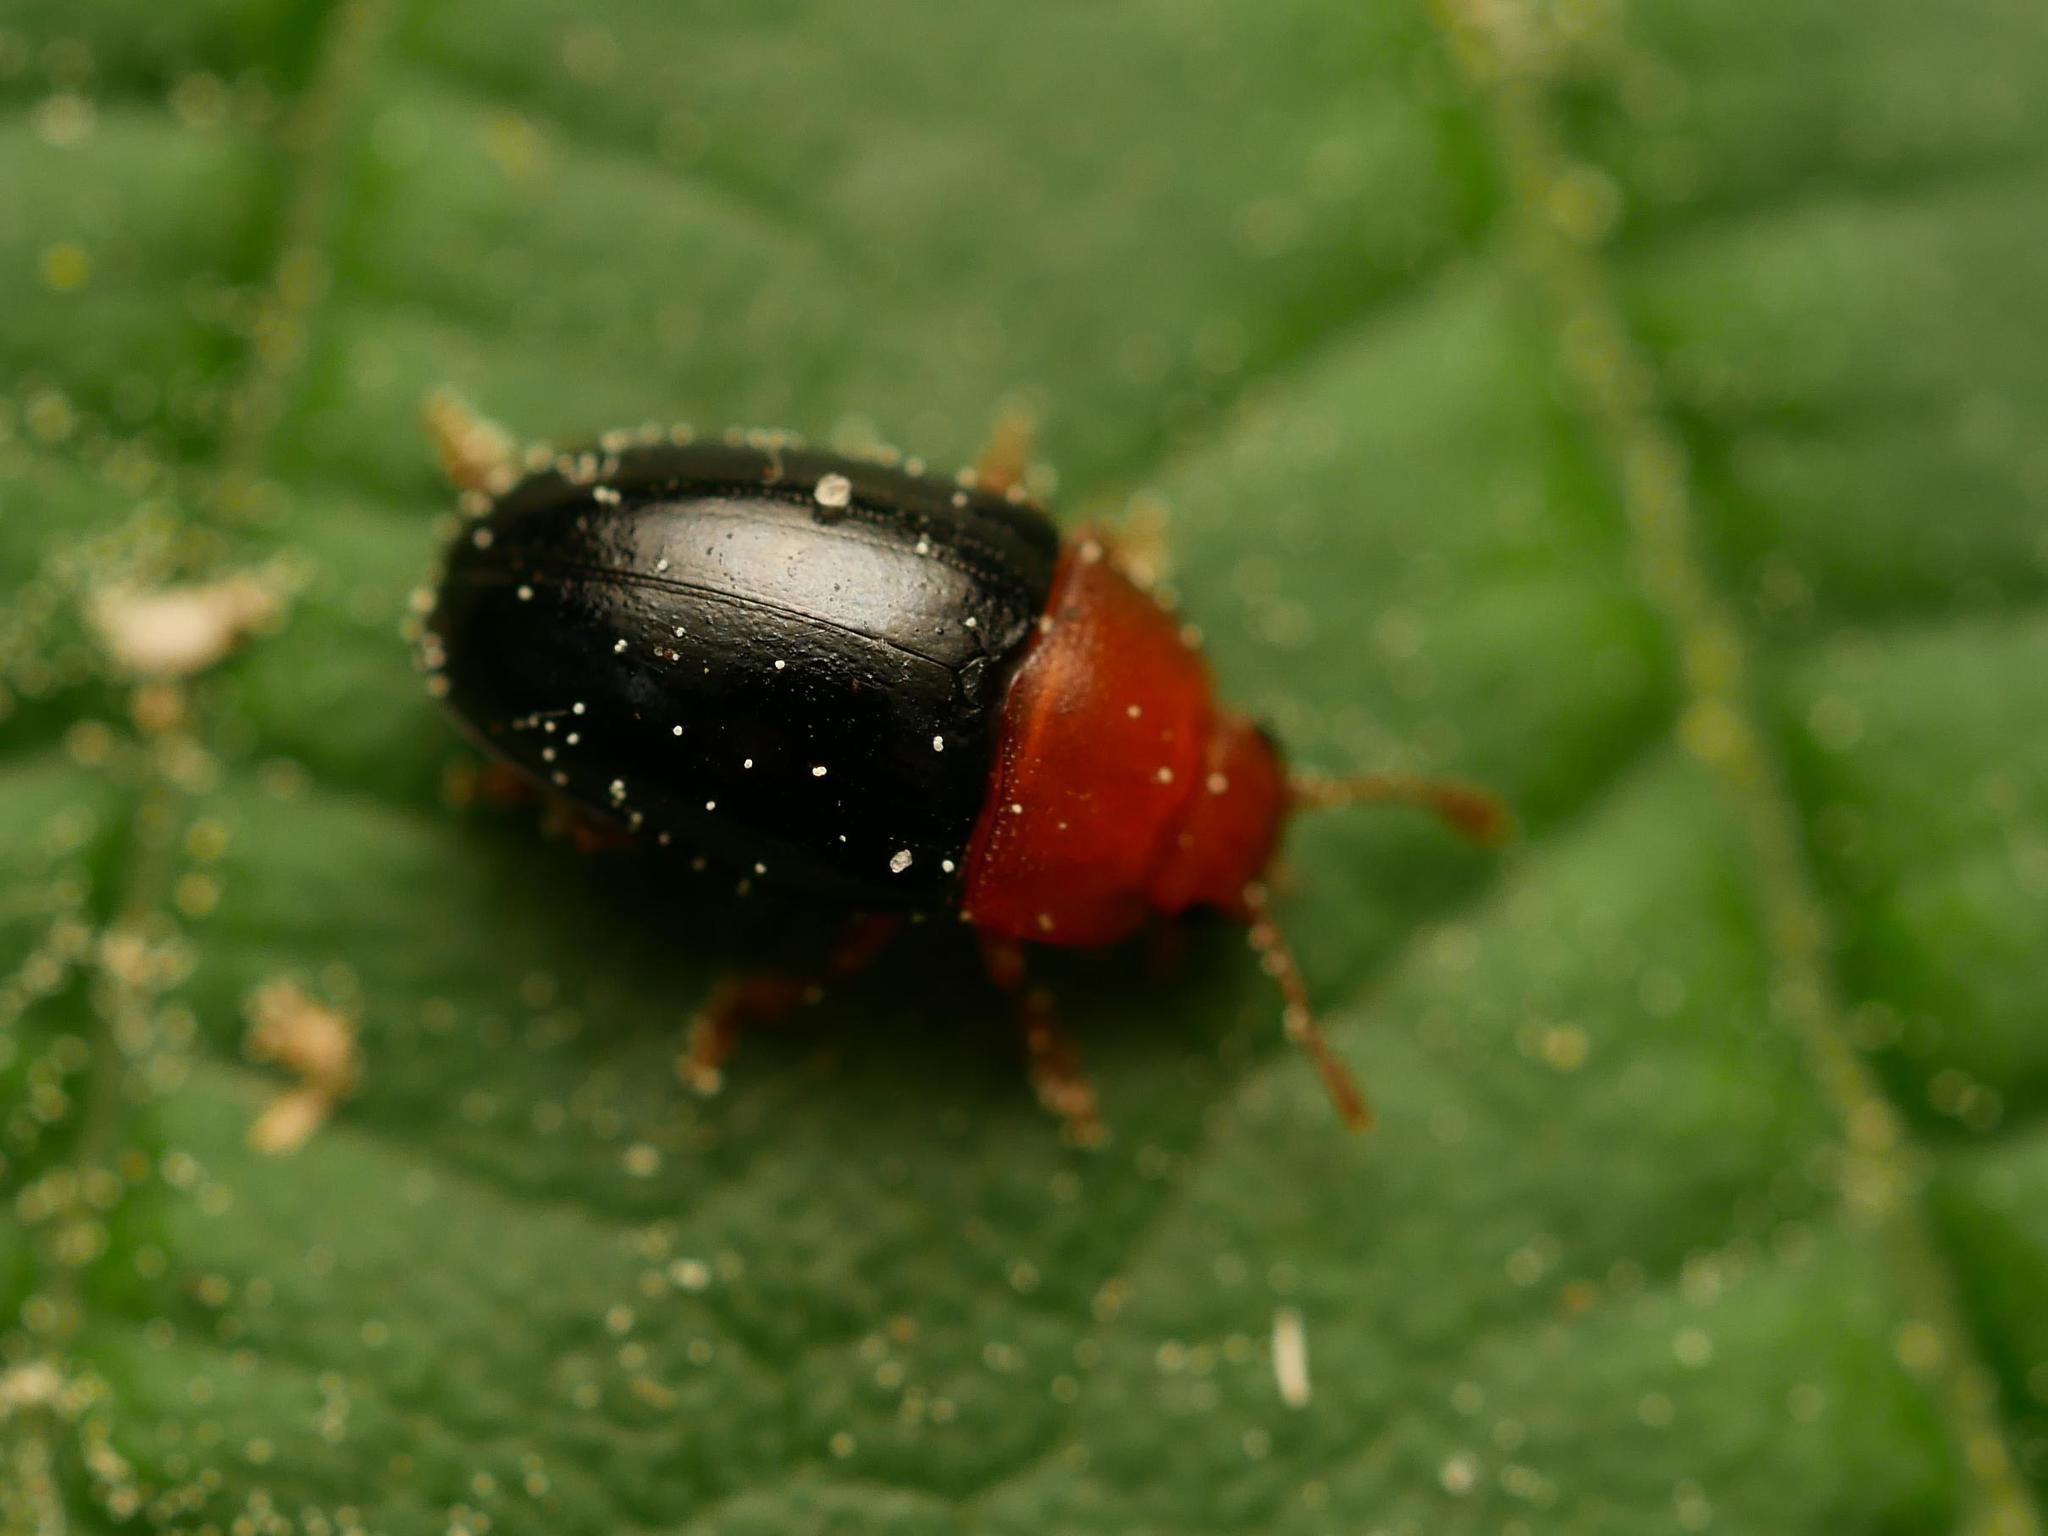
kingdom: Animalia
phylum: Arthropoda
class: Insecta
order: Coleoptera
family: Erotylidae
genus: Triplax
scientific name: Triplax lepida
